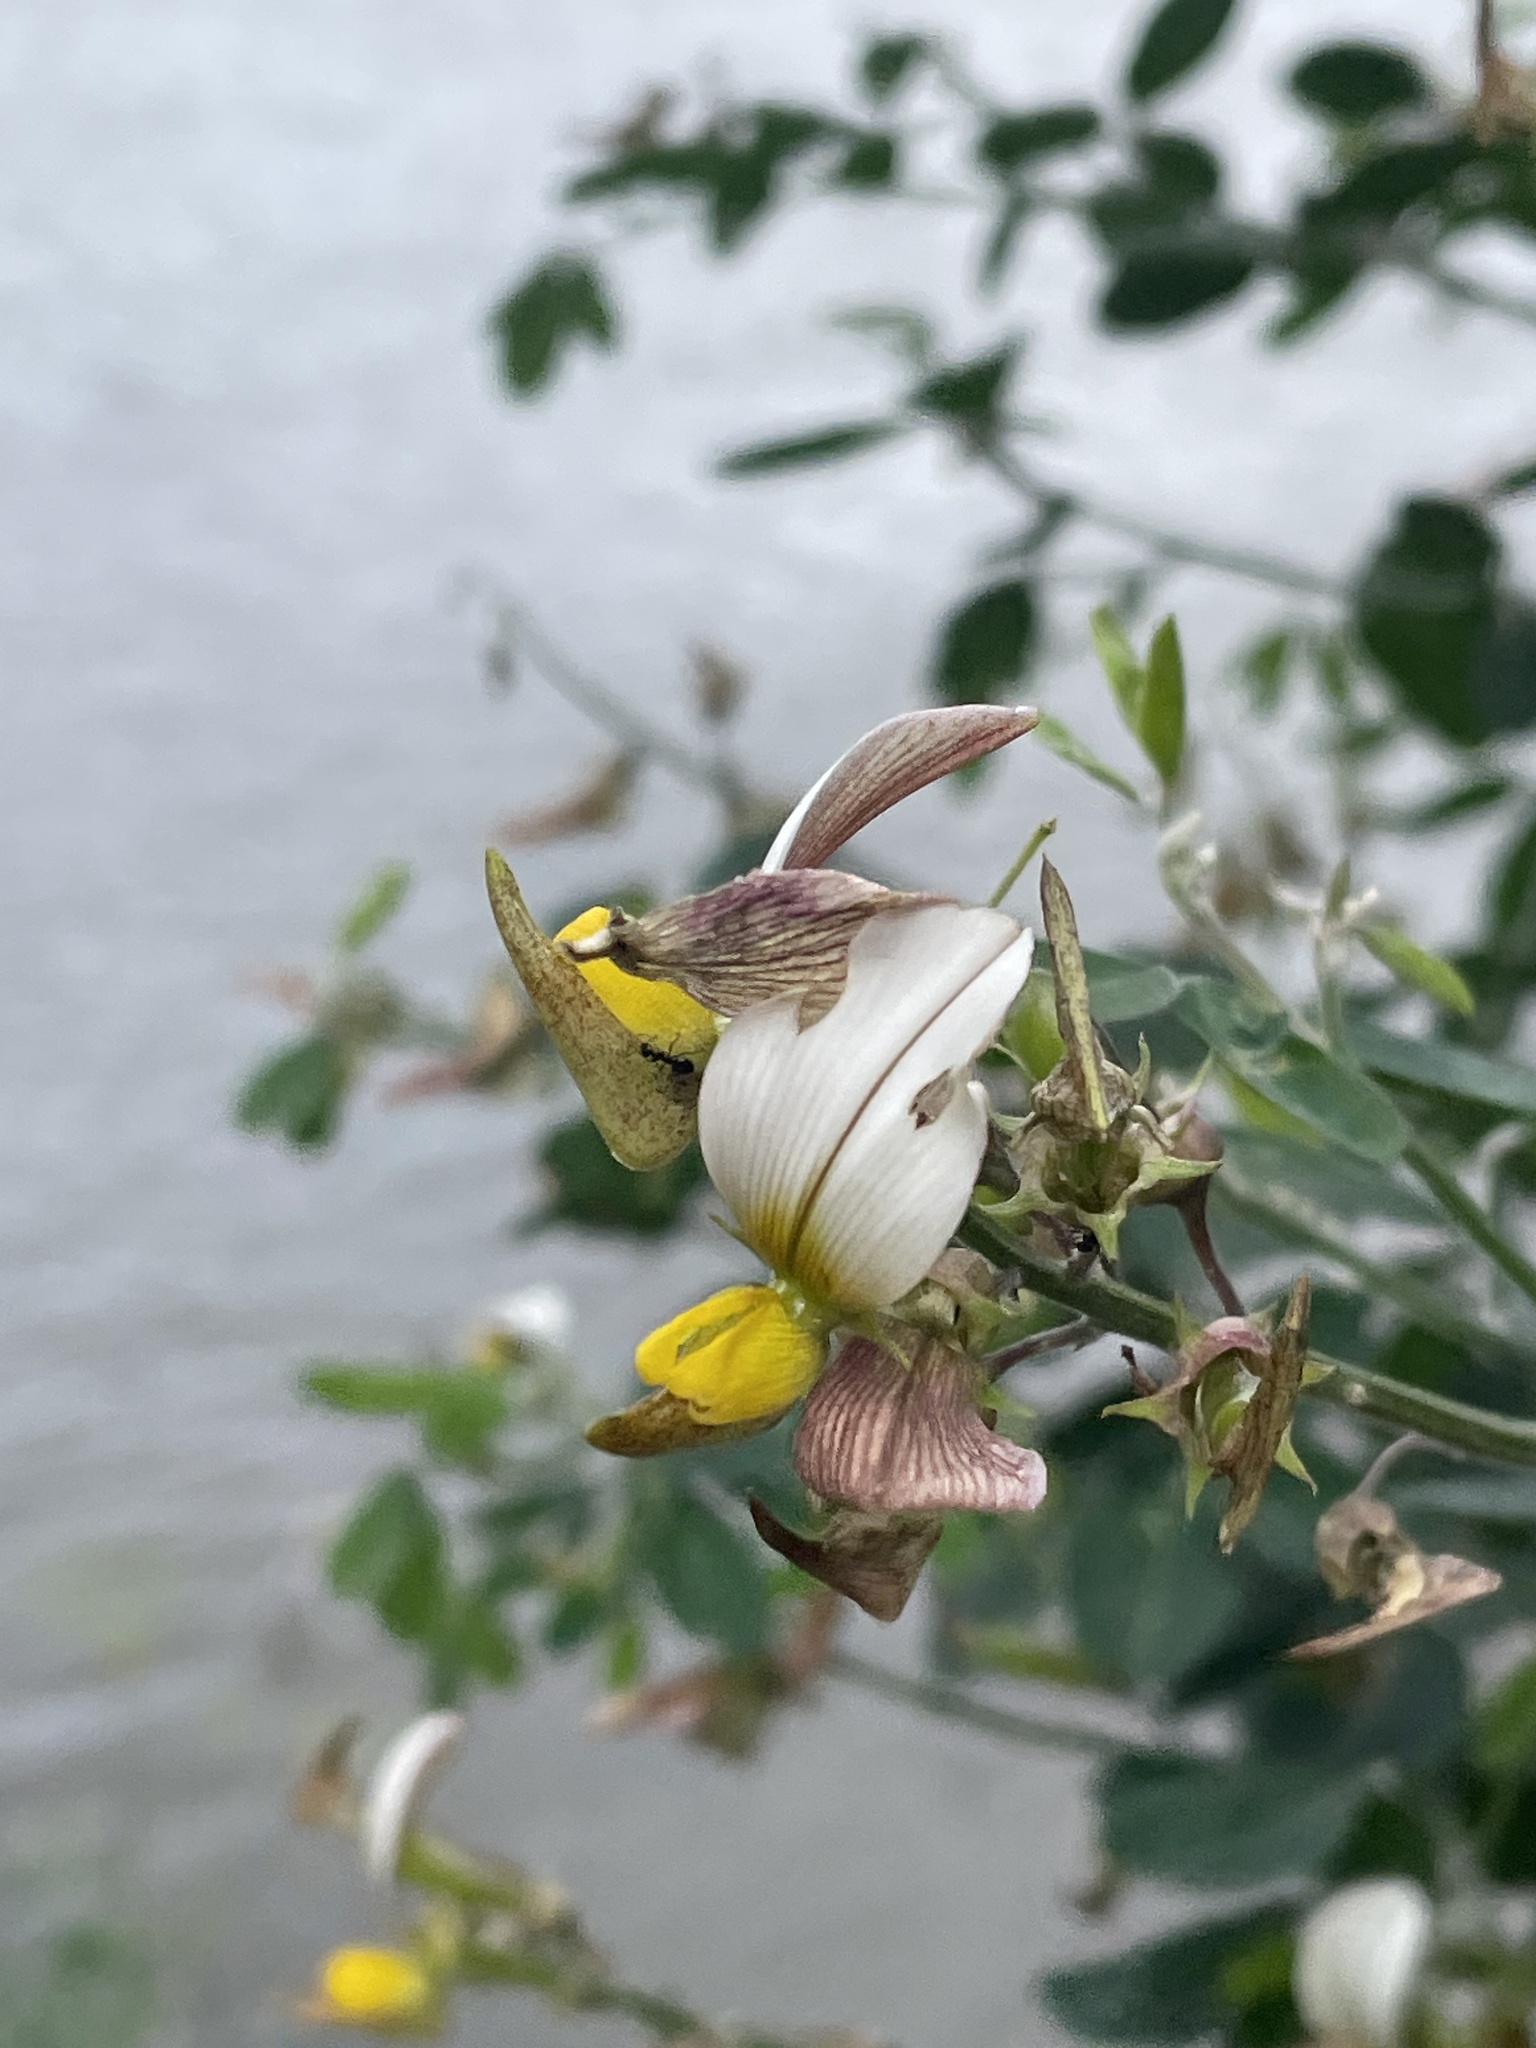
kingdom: Plantae
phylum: Tracheophyta
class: Magnoliopsida
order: Fabales
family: Fabaceae
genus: Crotalaria
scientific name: Crotalaria flavicarinata
